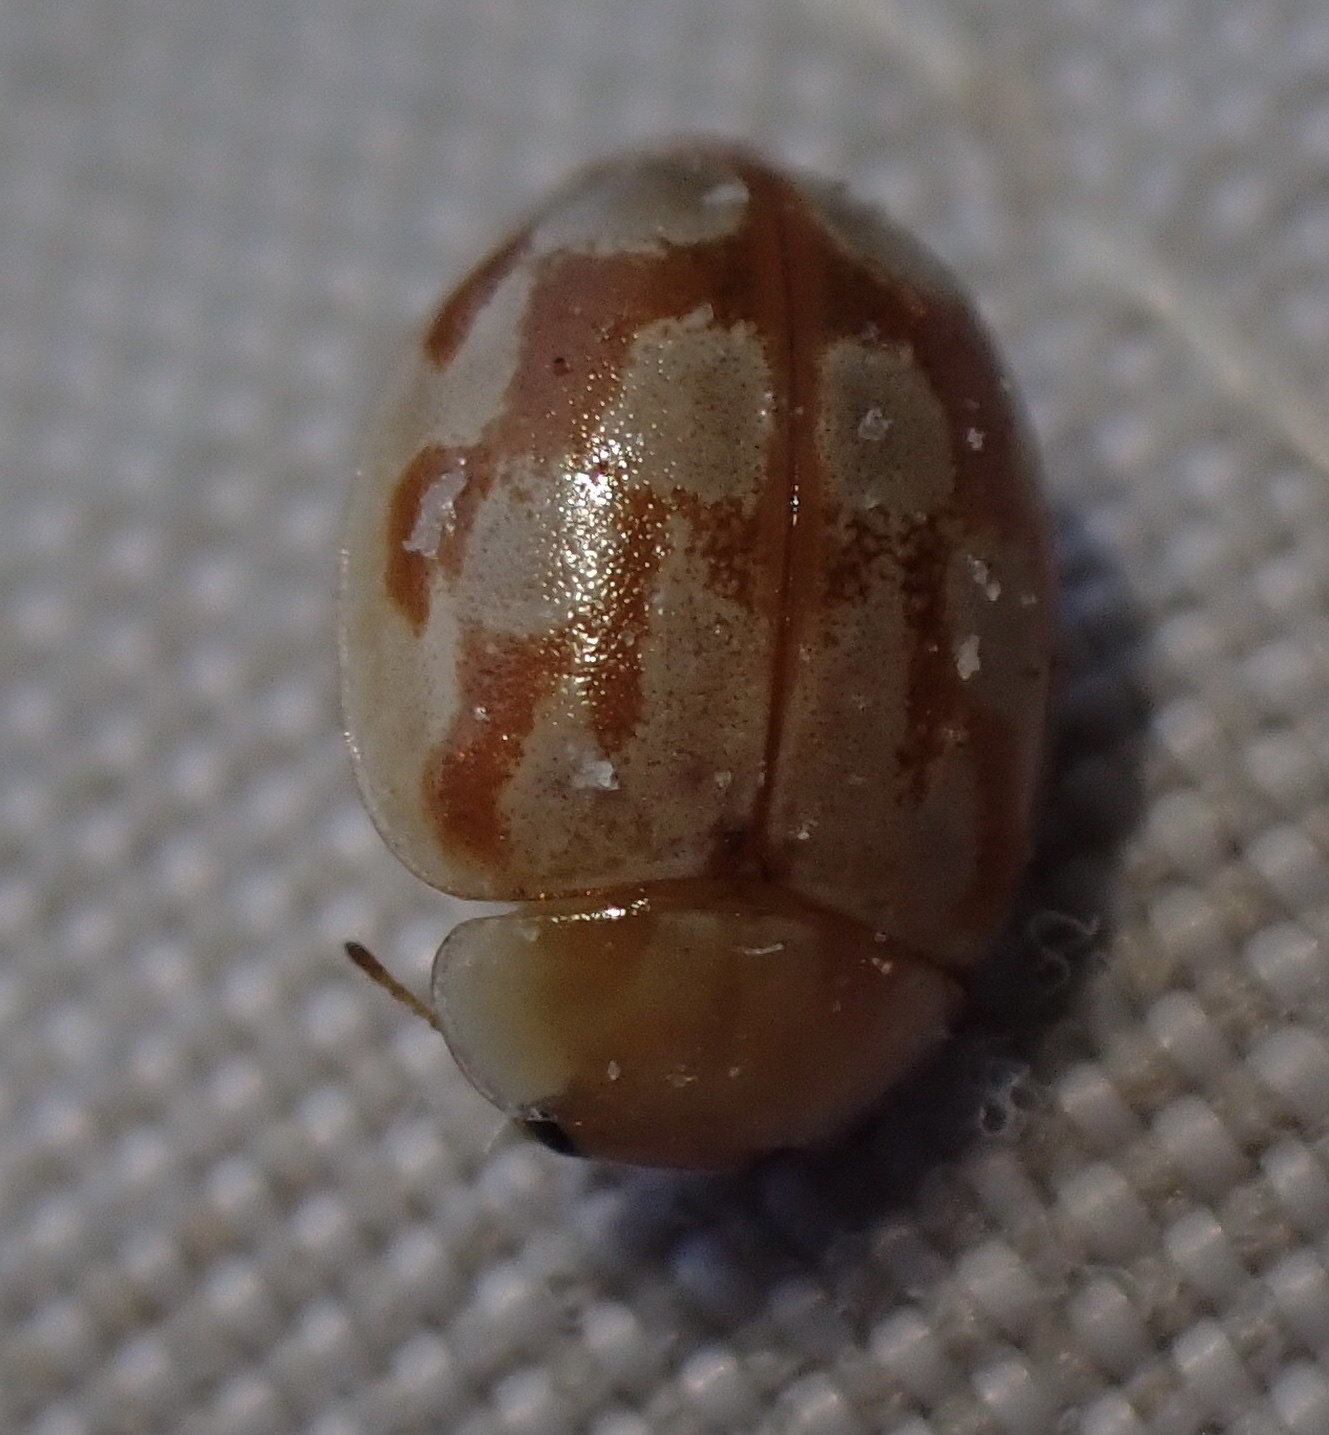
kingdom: Animalia
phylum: Arthropoda
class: Insecta
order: Coleoptera
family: Coccinellidae
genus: Myrrha
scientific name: Myrrha octodecimguttata
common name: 18-spot ladybird
